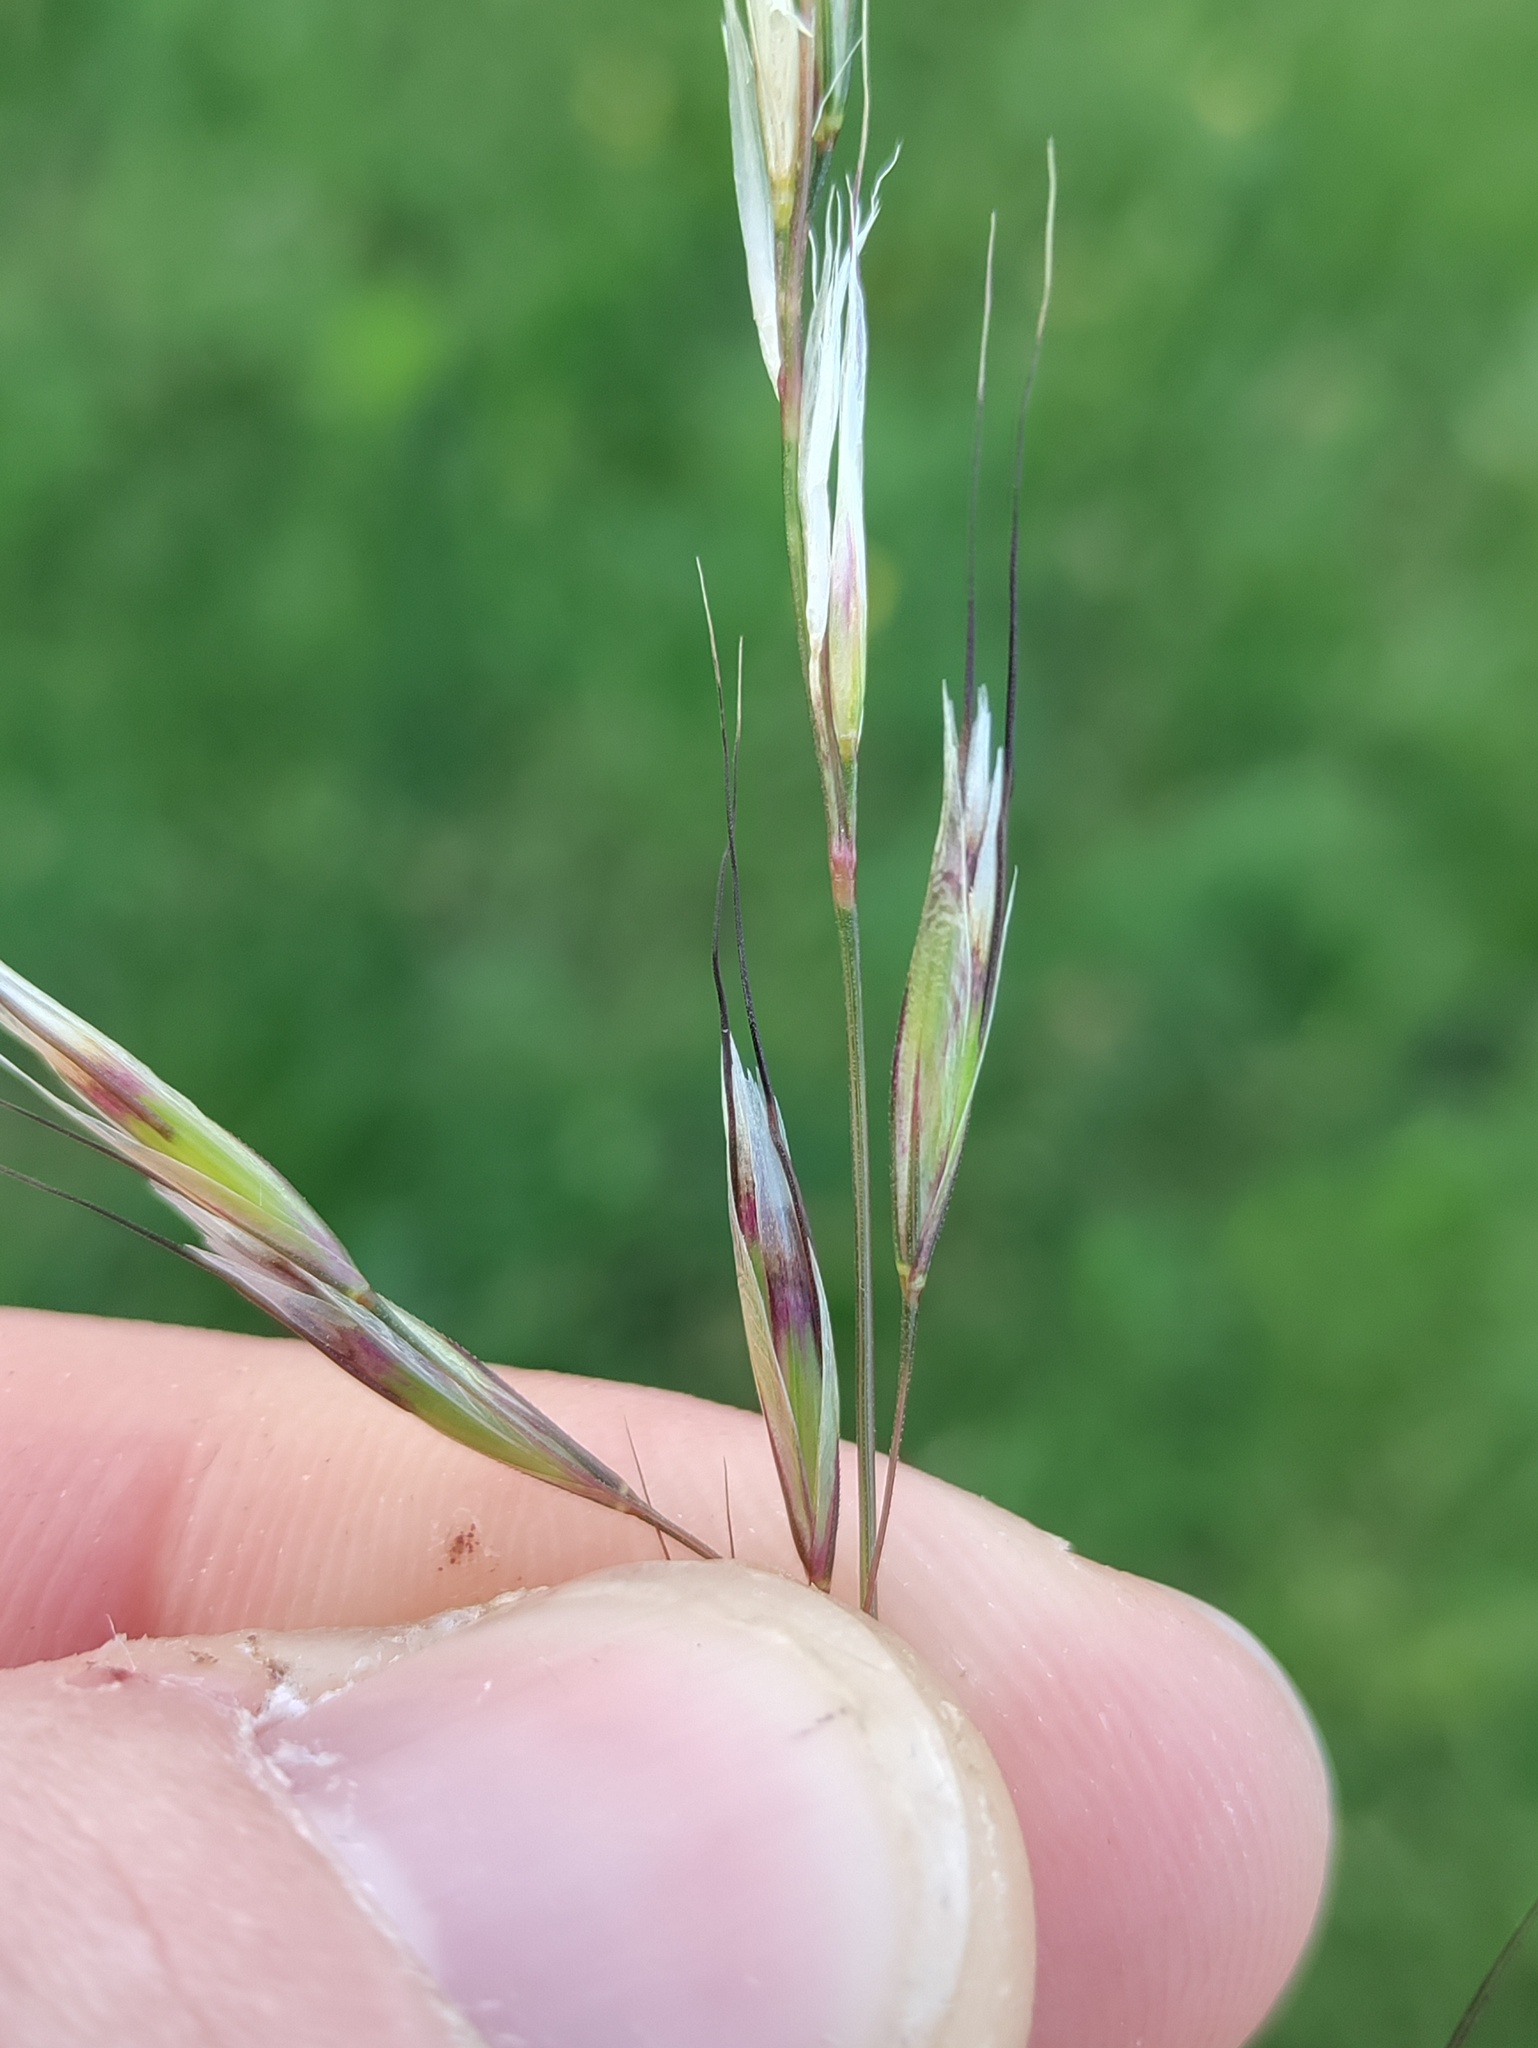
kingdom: Plantae
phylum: Tracheophyta
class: Liliopsida
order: Poales
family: Poaceae
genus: Avenula
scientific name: Avenula pubescens
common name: Downy alpine oatgrass
